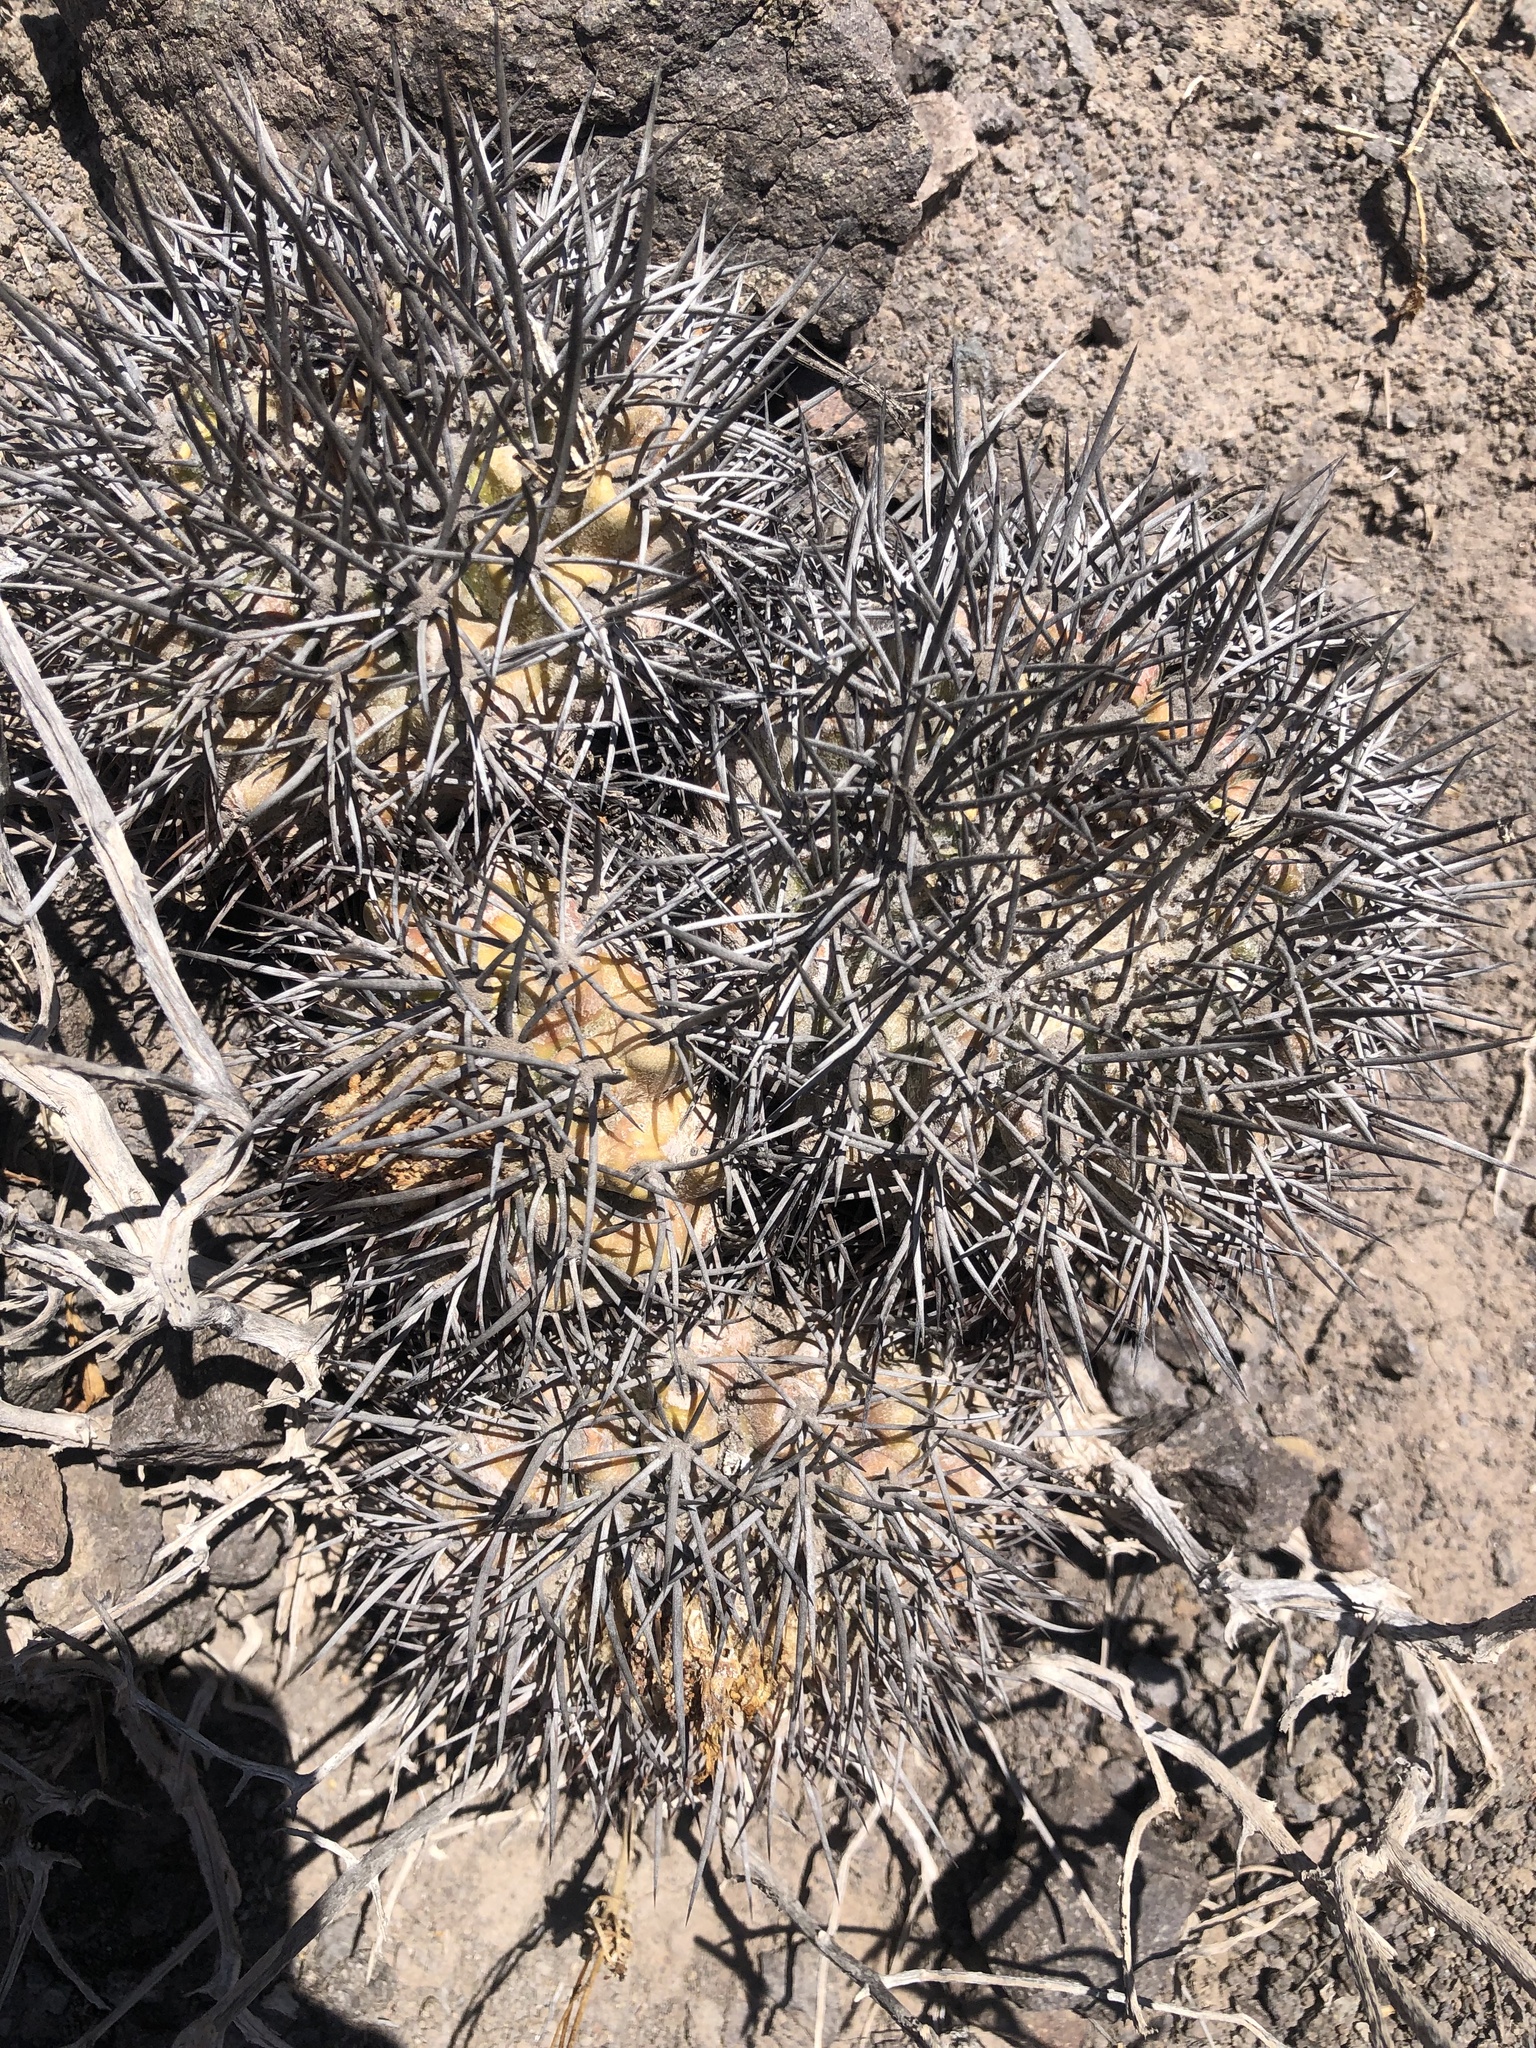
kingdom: Plantae
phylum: Tracheophyta
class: Magnoliopsida
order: Caryophyllales
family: Cactaceae
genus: Copiapoa
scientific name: Copiapoa coquimbana
